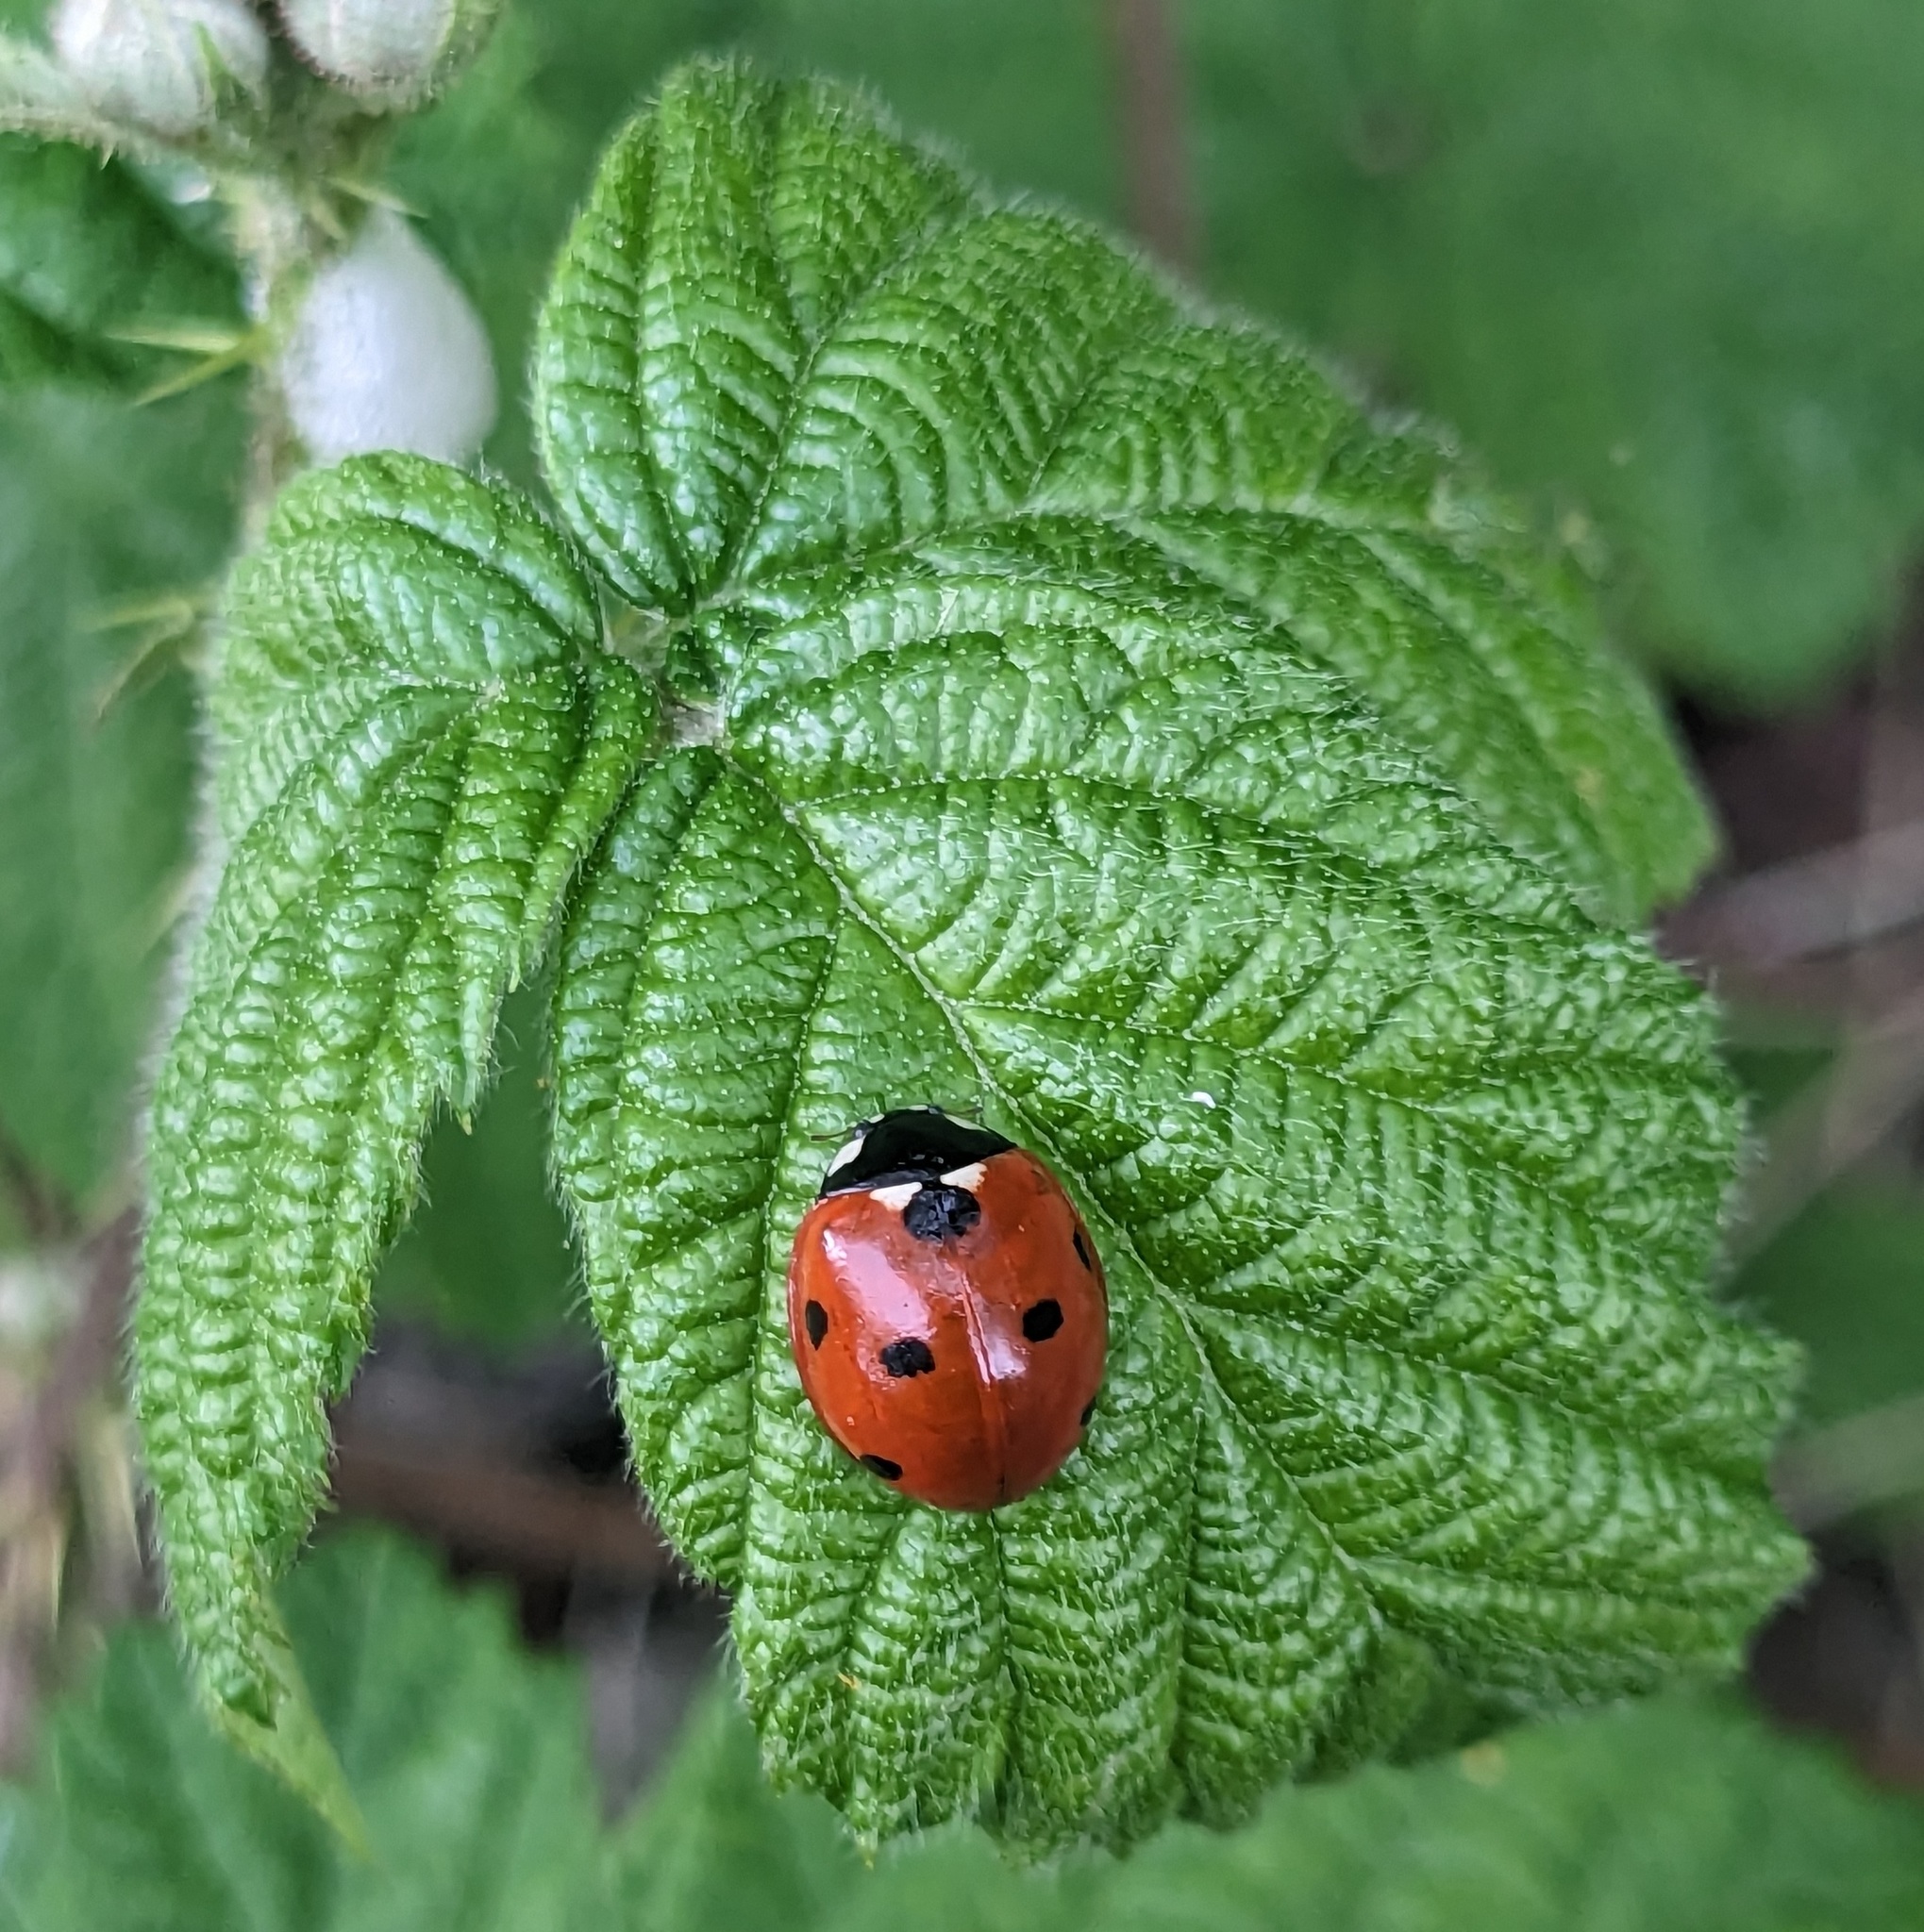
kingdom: Animalia
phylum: Arthropoda
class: Insecta
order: Coleoptera
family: Coccinellidae
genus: Coccinella
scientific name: Coccinella septempunctata
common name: Sevenspotted lady beetle
